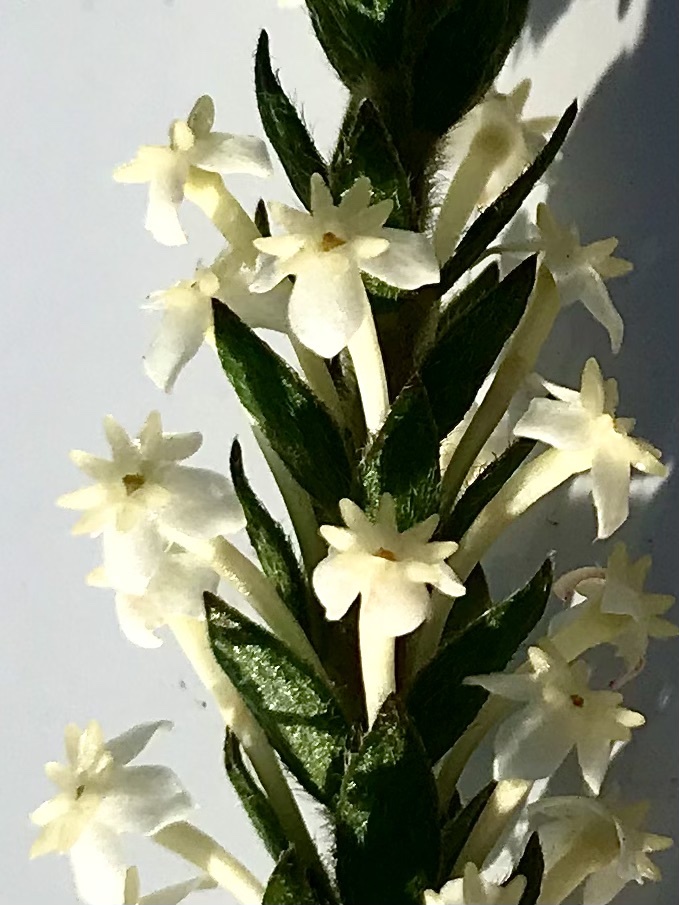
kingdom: Plantae
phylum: Tracheophyta
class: Magnoliopsida
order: Malvales
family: Thymelaeaceae
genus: Struthiola
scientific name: Struthiola hirsuta
